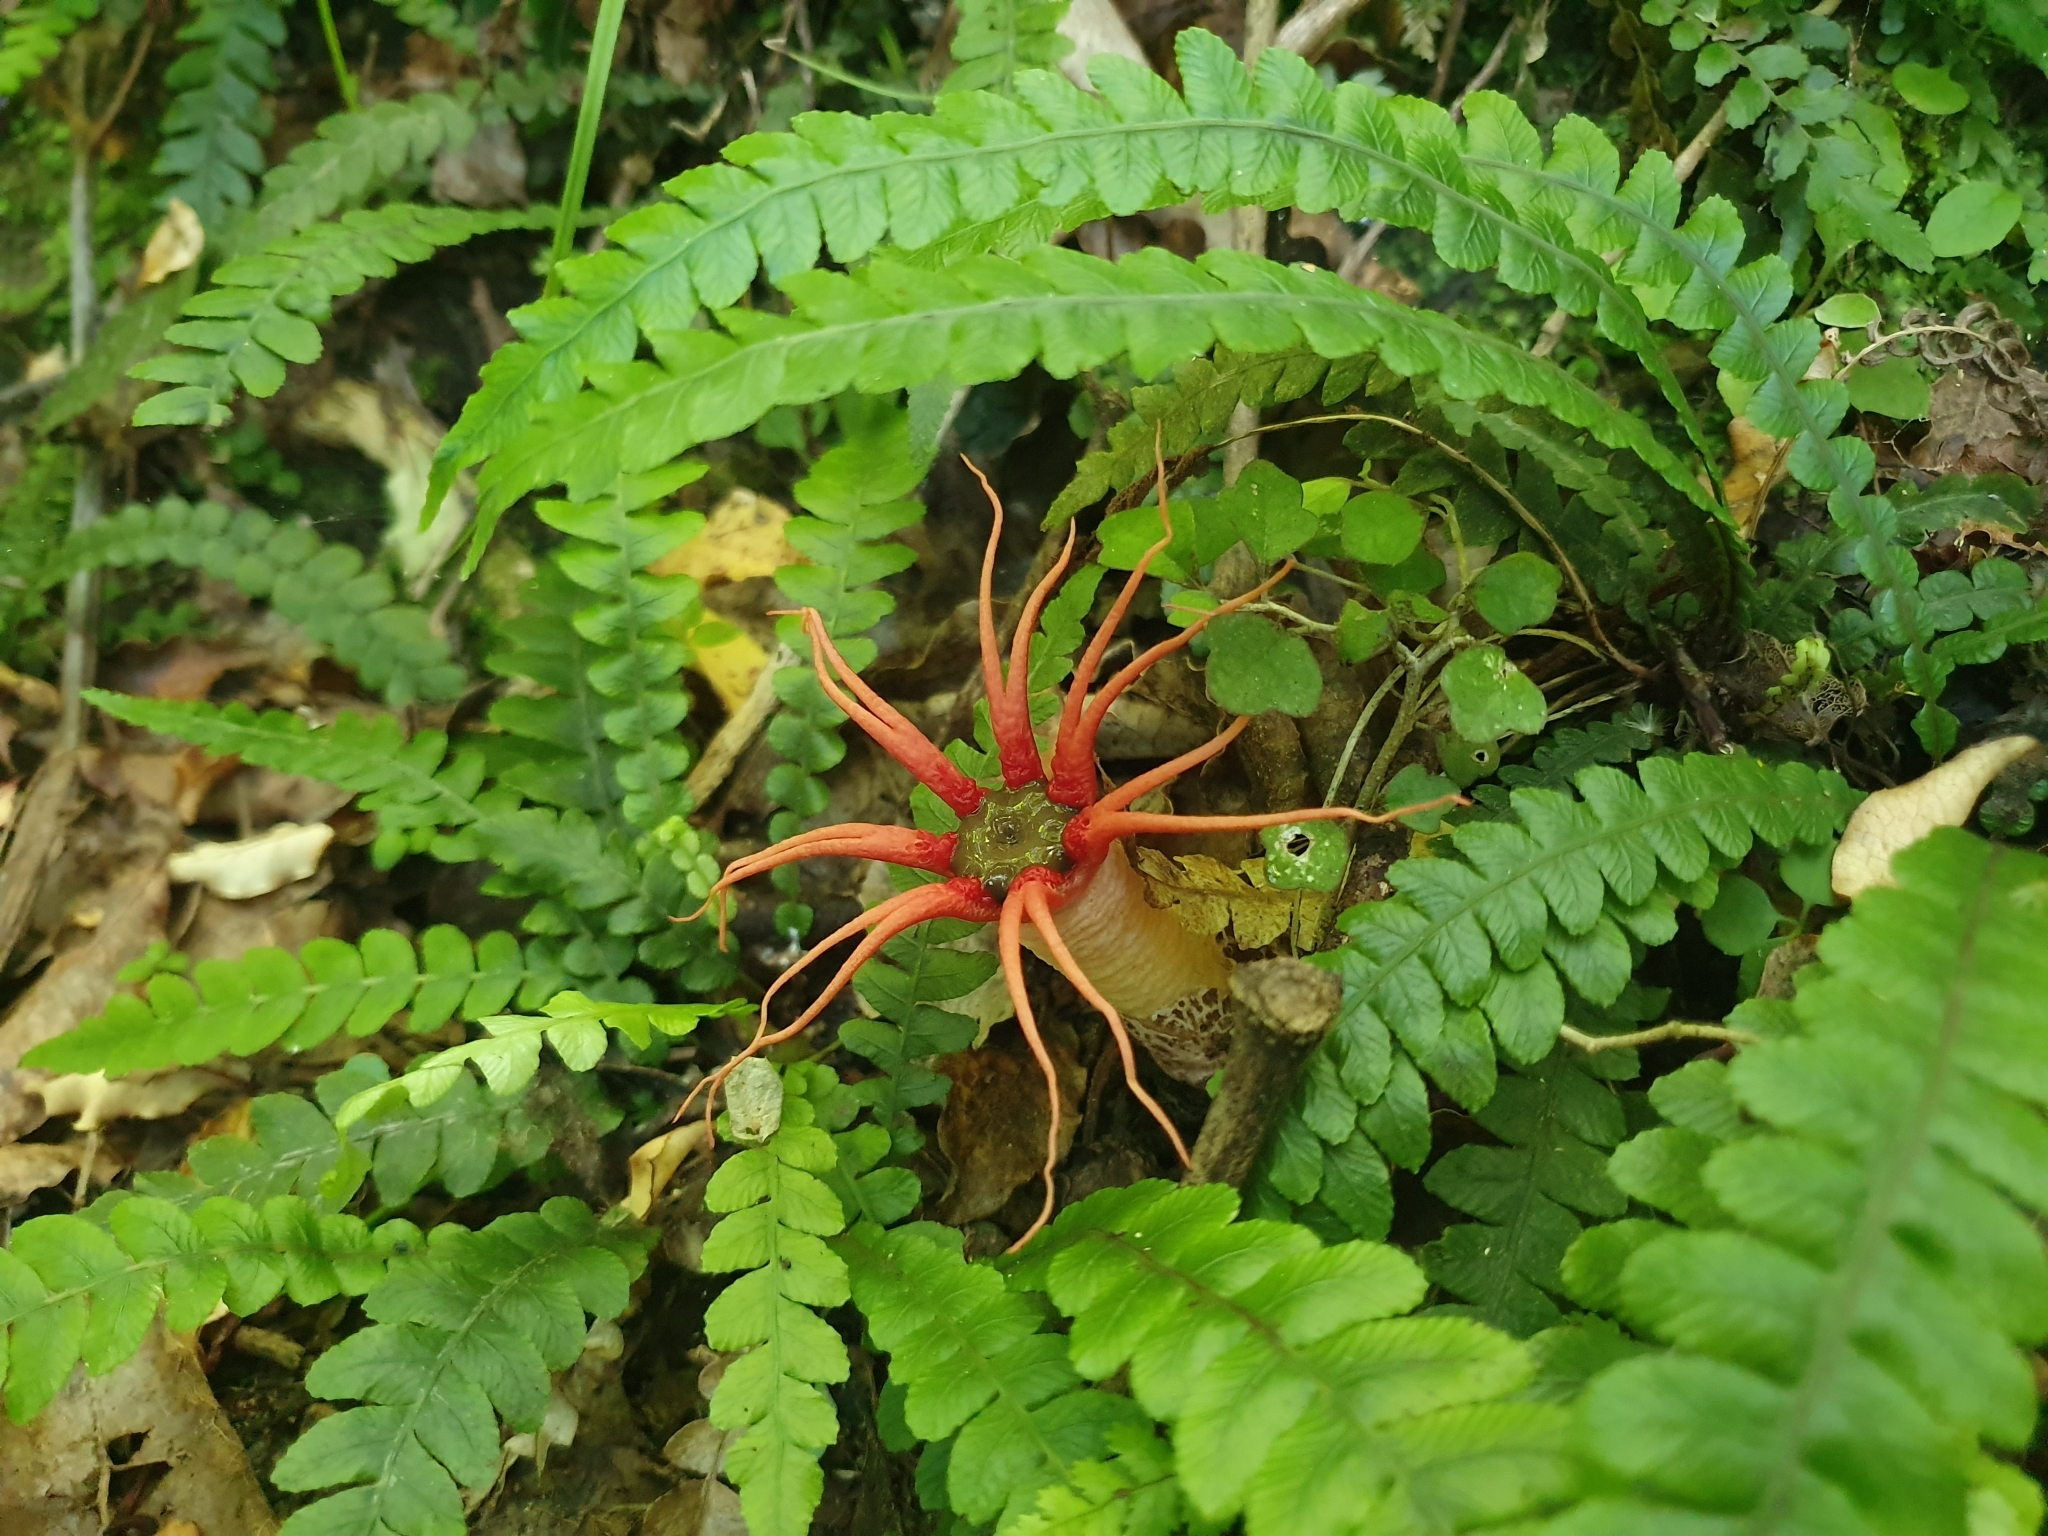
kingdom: Fungi
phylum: Basidiomycota
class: Agaricomycetes
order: Phallales
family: Phallaceae
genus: Aseroe
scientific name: Aseroe rubra
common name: Starfish fungus
